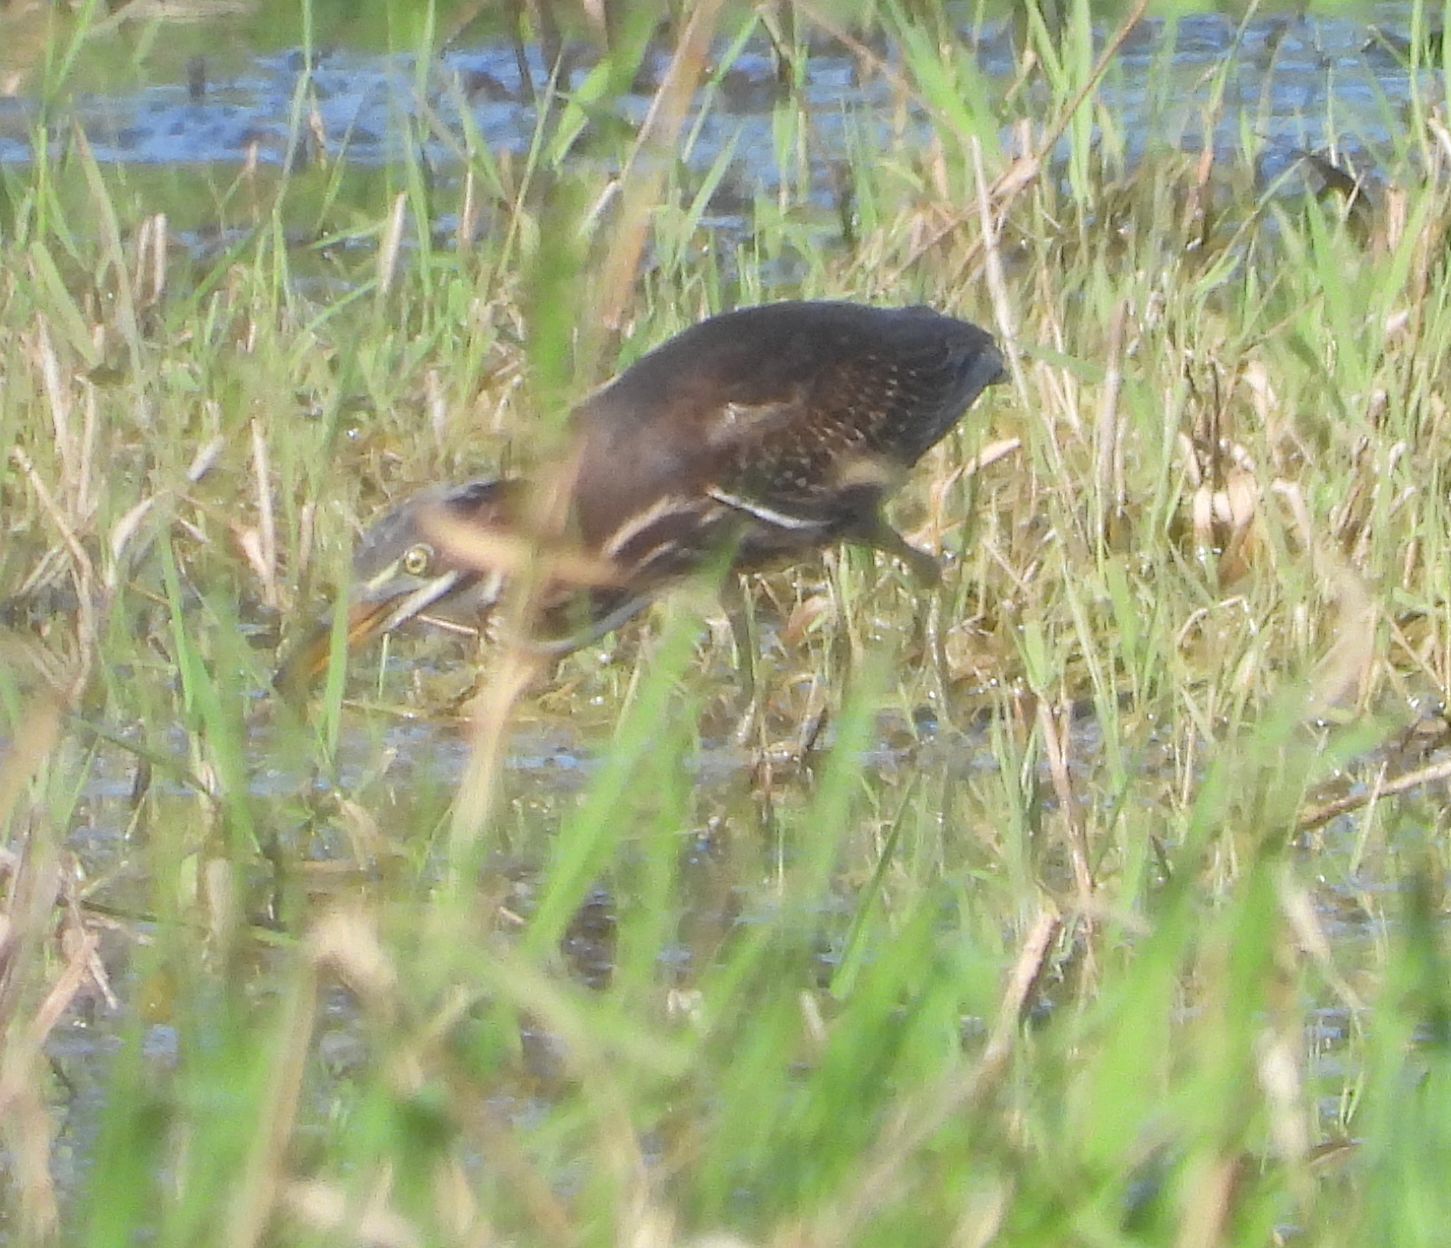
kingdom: Animalia
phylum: Chordata
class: Aves
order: Pelecaniformes
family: Ardeidae
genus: Butorides
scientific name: Butorides virescens
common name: Green heron
